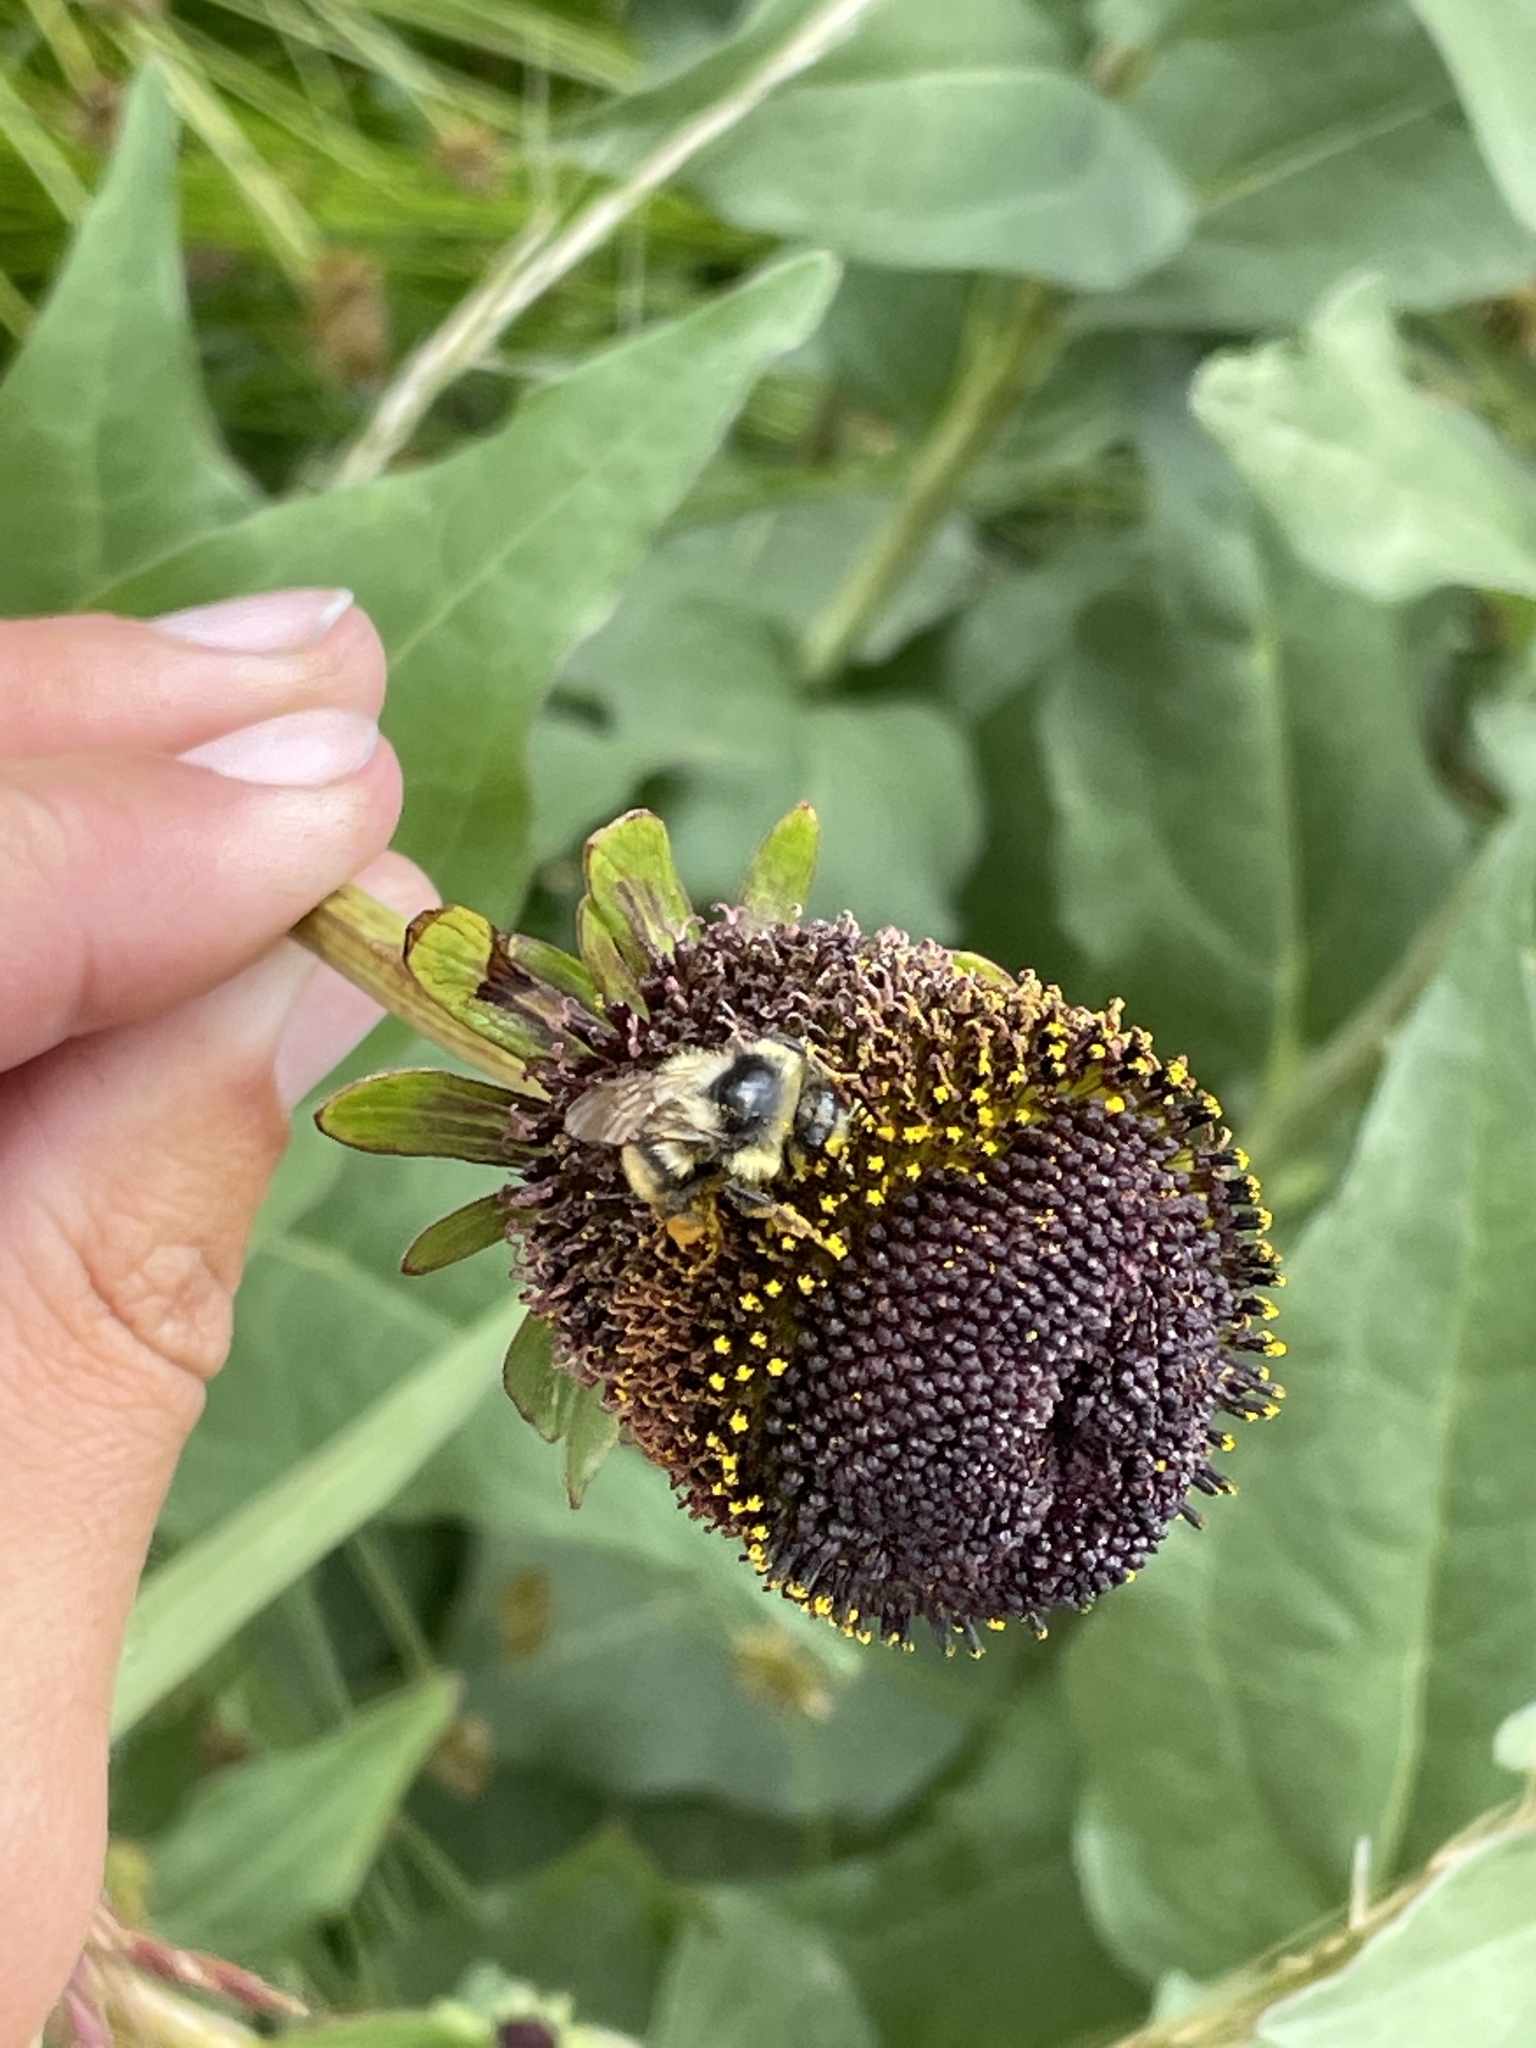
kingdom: Plantae
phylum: Tracheophyta
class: Magnoliopsida
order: Asterales
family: Asteraceae
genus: Rudbeckia
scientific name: Rudbeckia occidentalis
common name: Western coneflower
